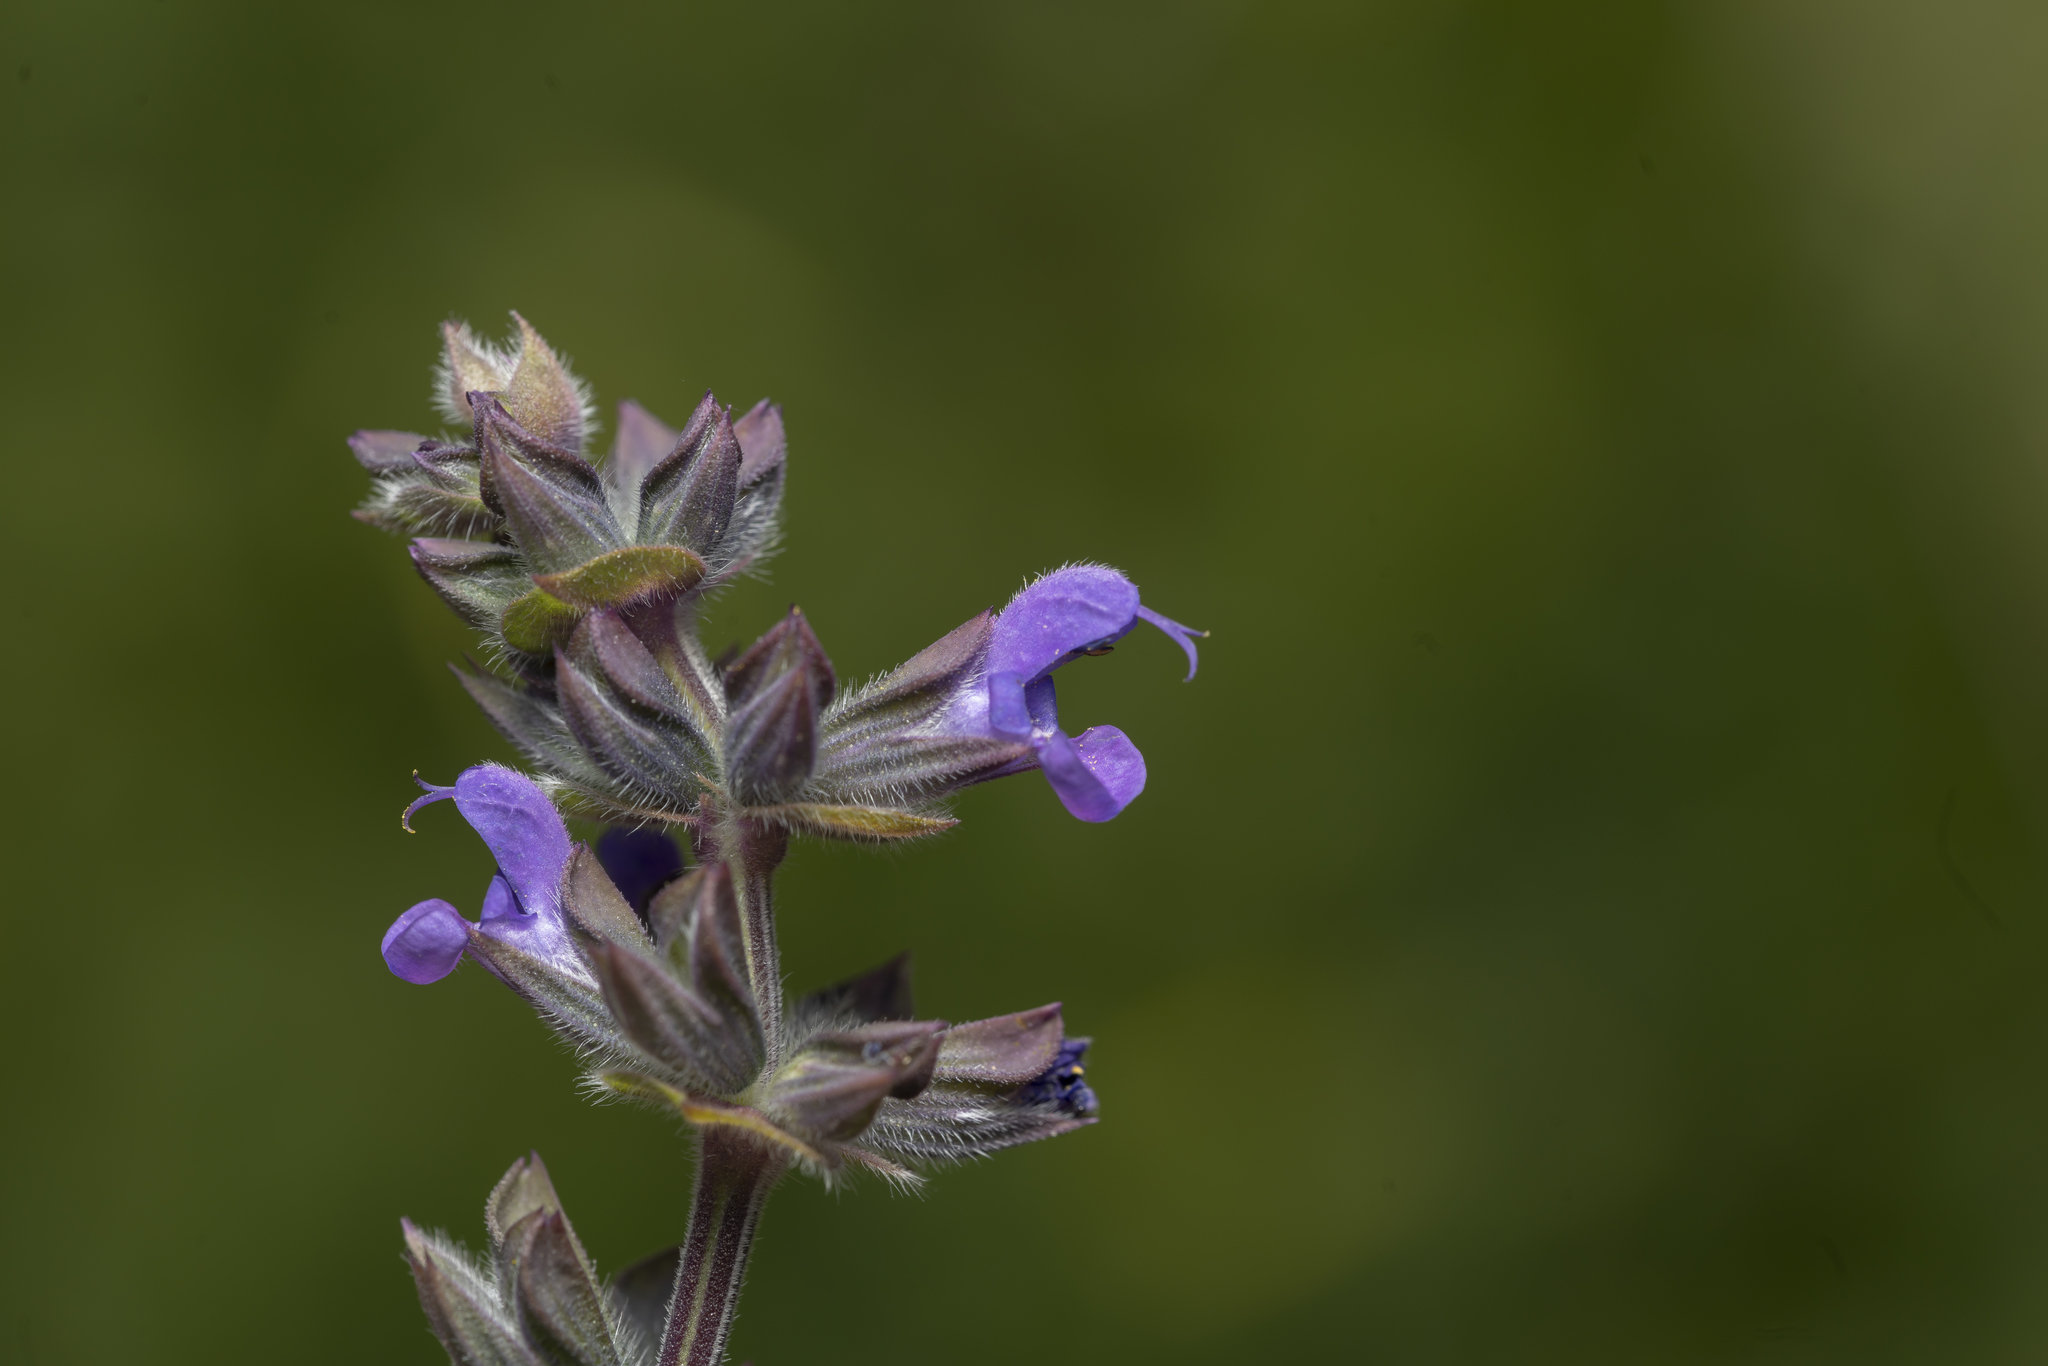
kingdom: Plantae
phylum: Tracheophyta
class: Magnoliopsida
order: Lamiales
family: Lamiaceae
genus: Salvia
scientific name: Salvia verbenaca
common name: Wild clary
